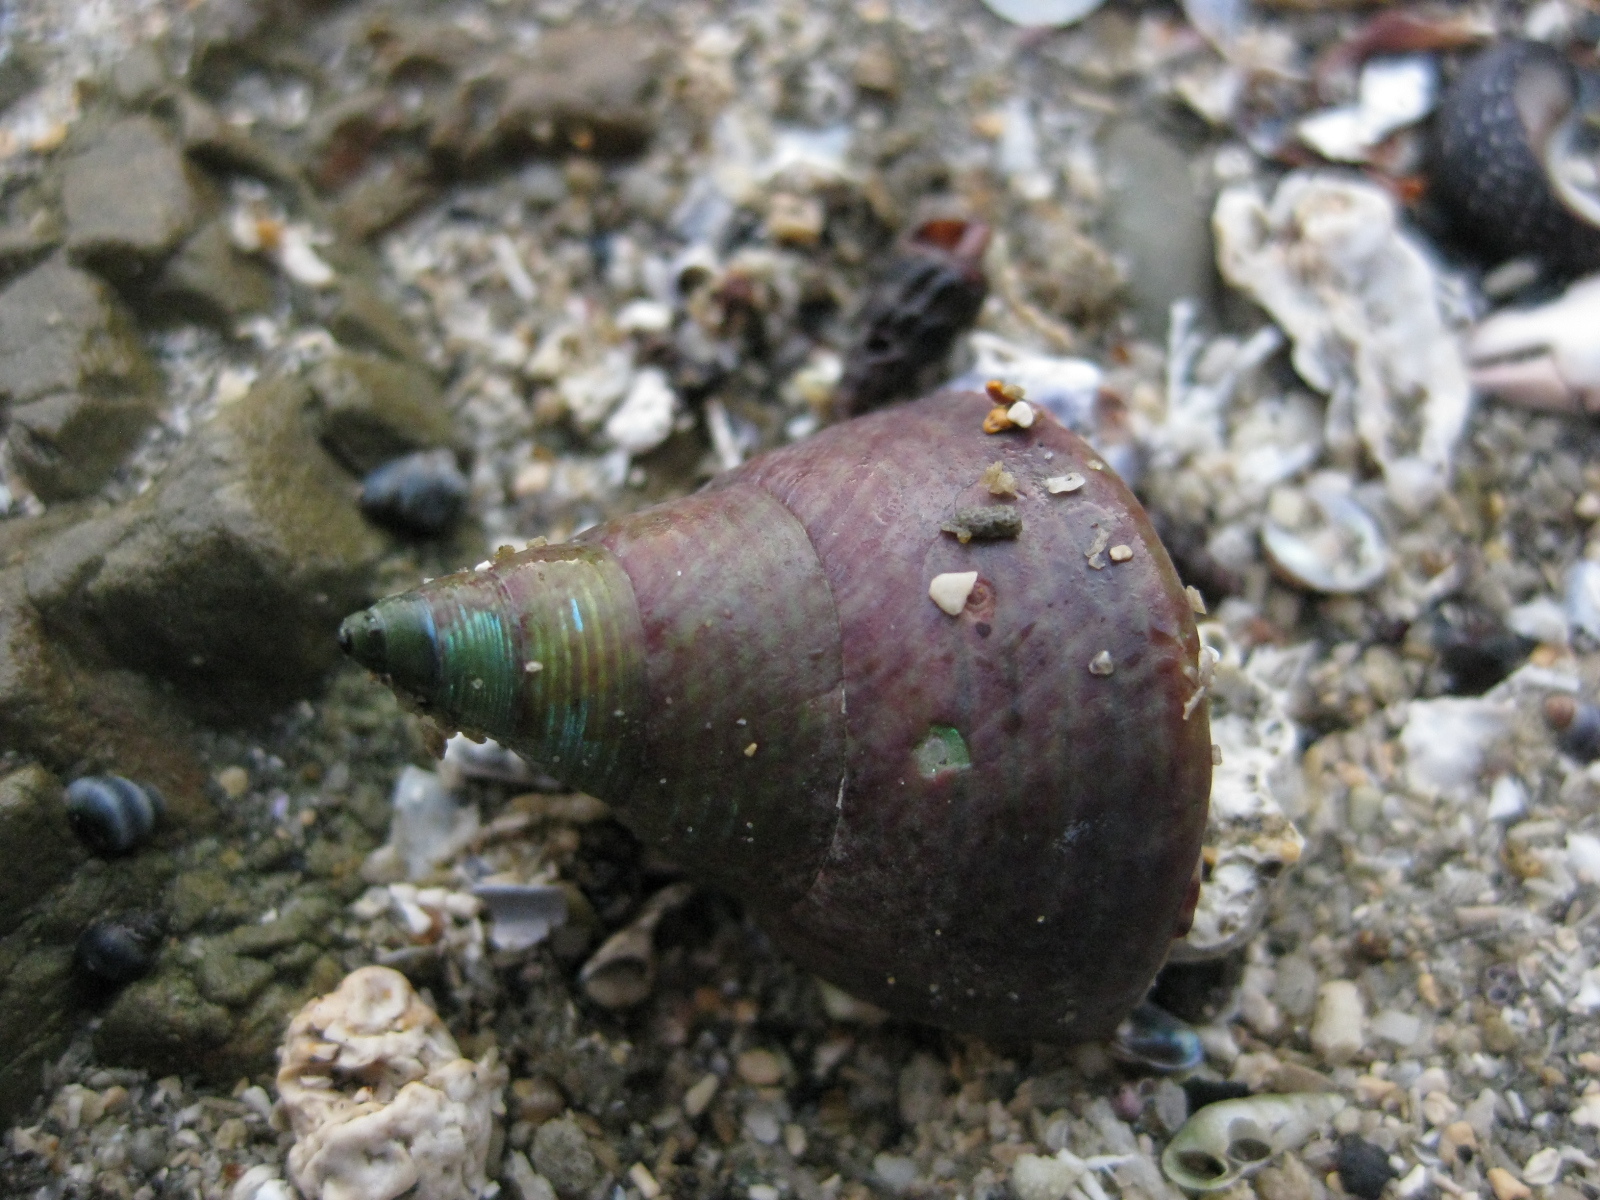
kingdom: Animalia
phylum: Mollusca
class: Gastropoda
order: Trochida
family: Trochidae
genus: Cantharidus
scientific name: Cantharidus opalus
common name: Opal jewel topsnail
